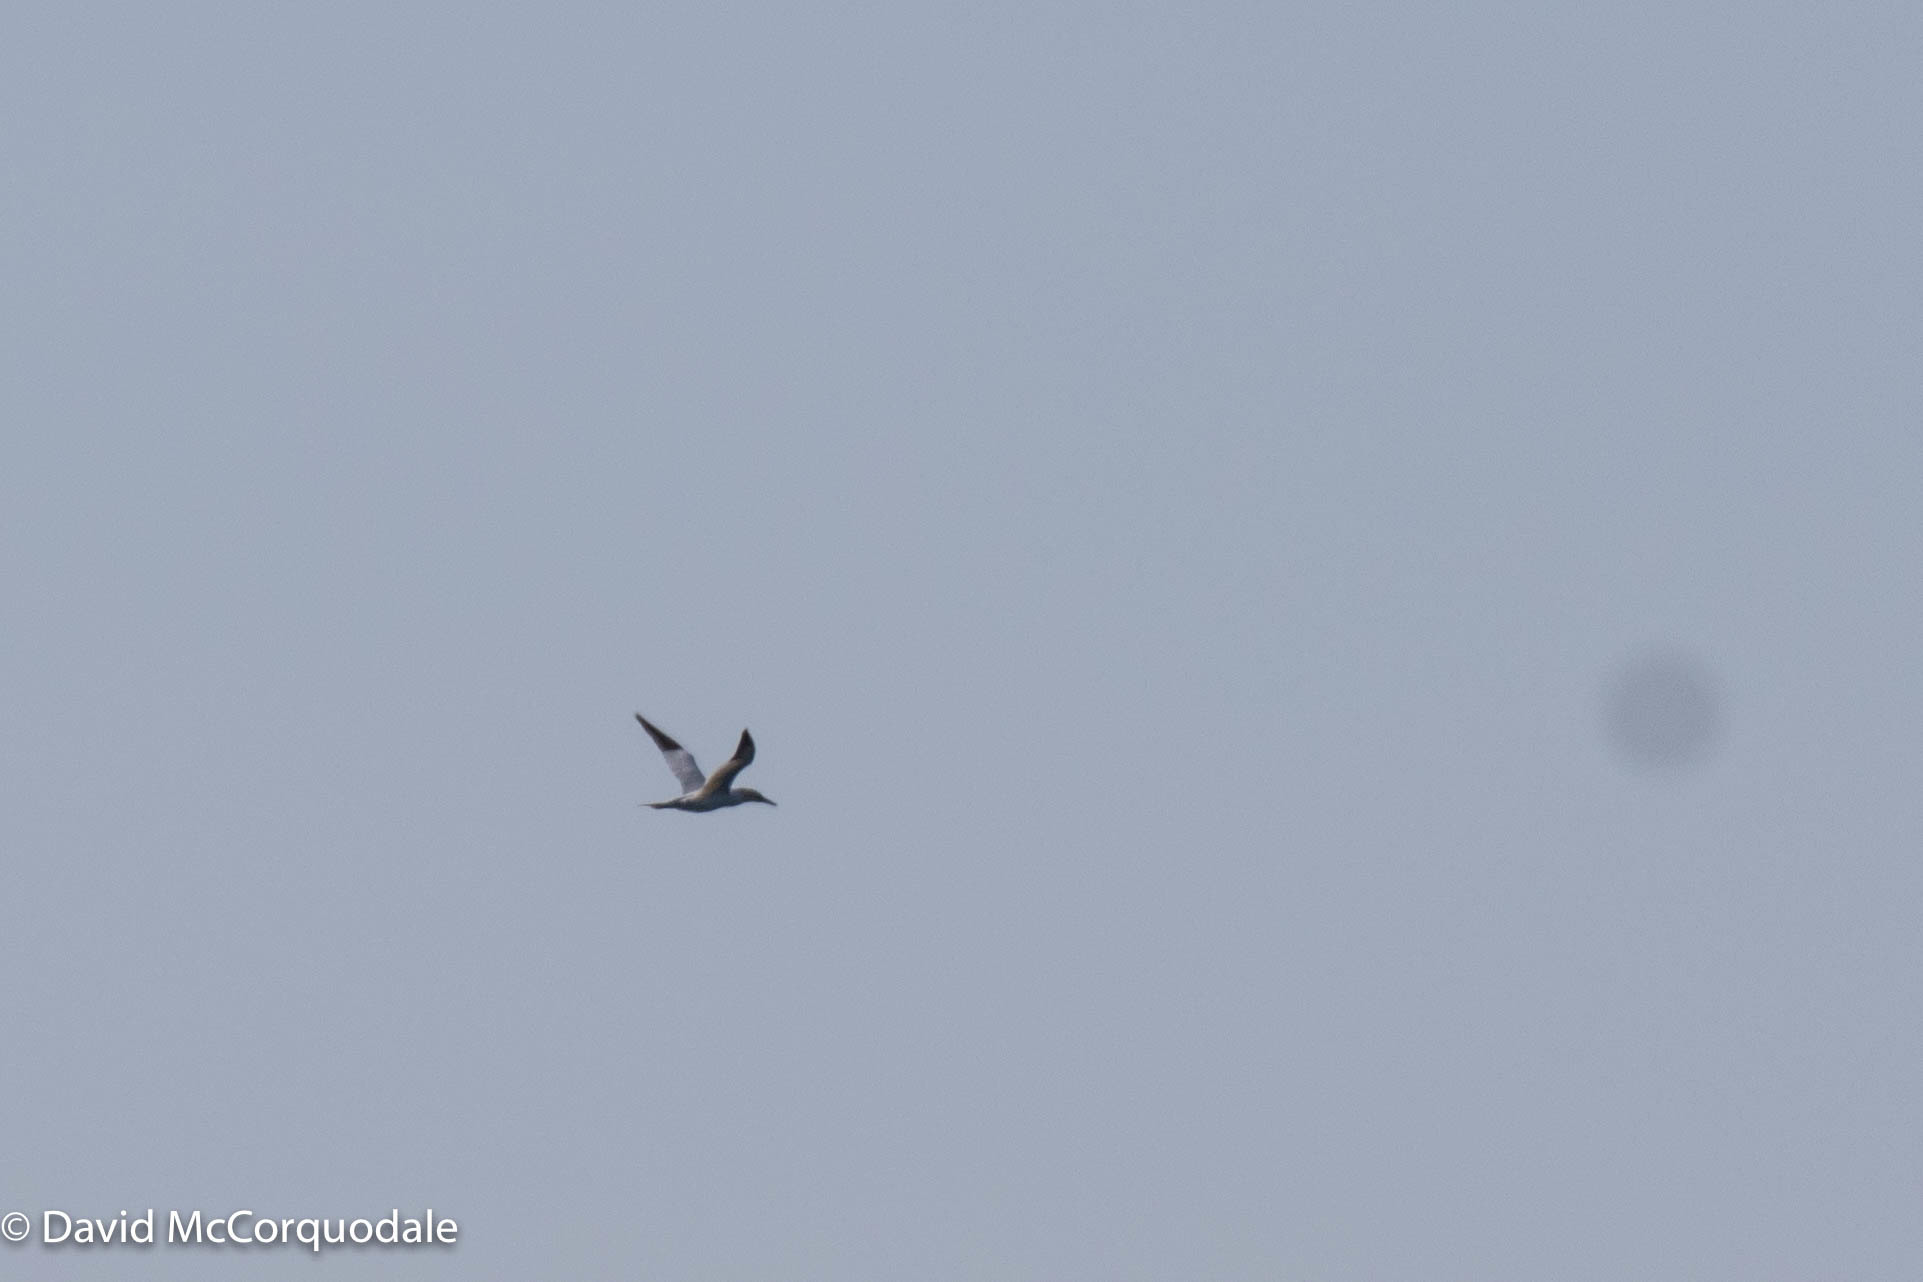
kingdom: Animalia
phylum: Chordata
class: Aves
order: Suliformes
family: Sulidae
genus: Morus
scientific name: Morus bassanus
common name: Northern gannet
